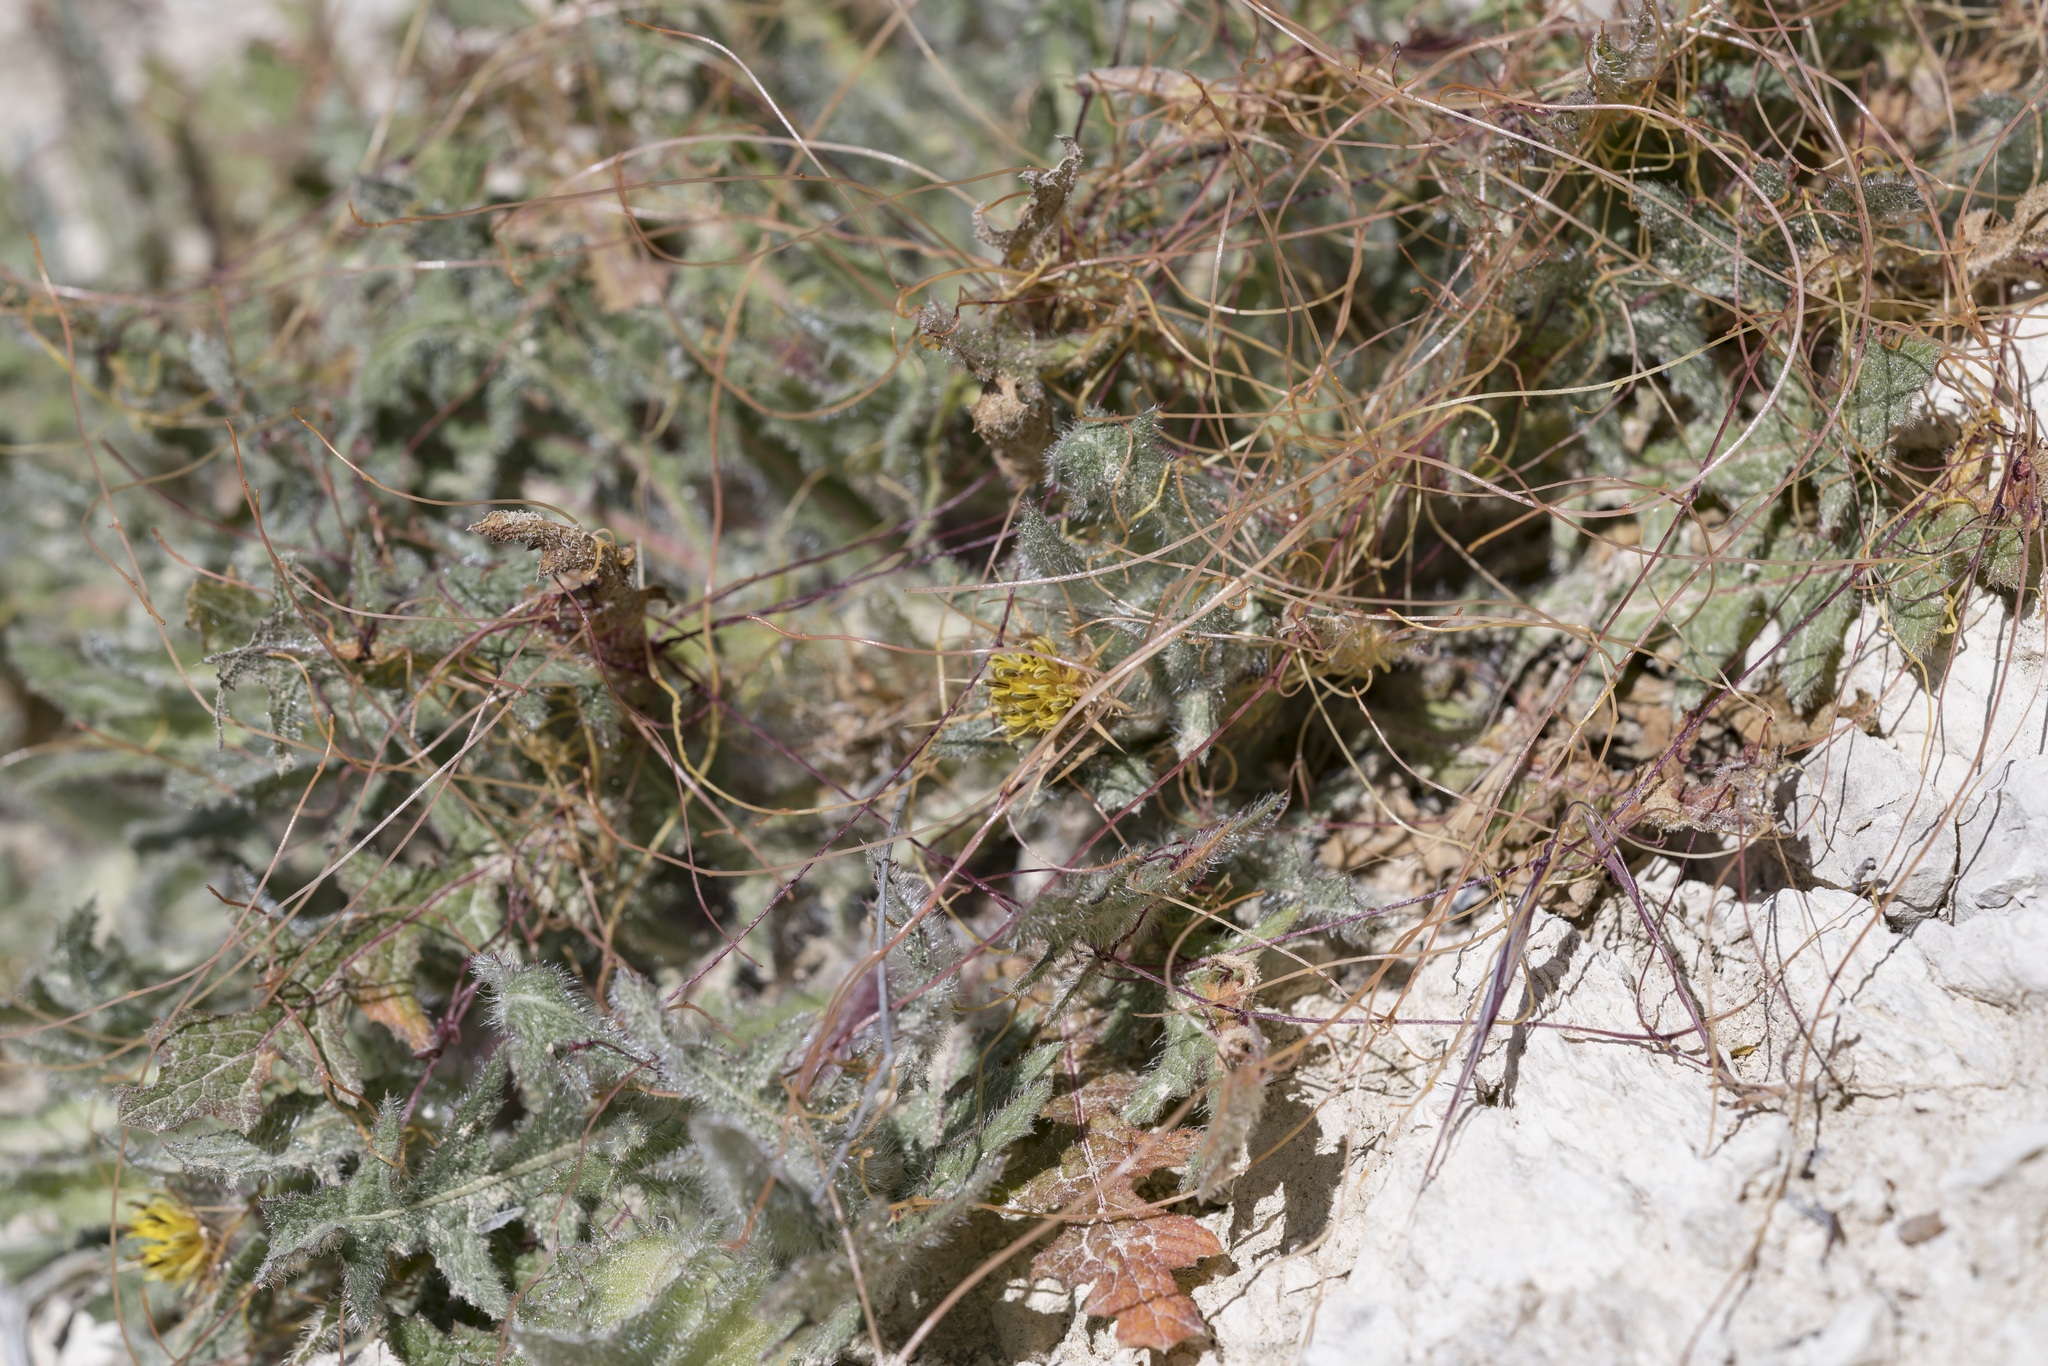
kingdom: Plantae
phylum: Tracheophyta
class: Magnoliopsida
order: Asterales
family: Asteraceae
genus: Centaurea
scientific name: Centaurea benedicta
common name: Blessed thistle
